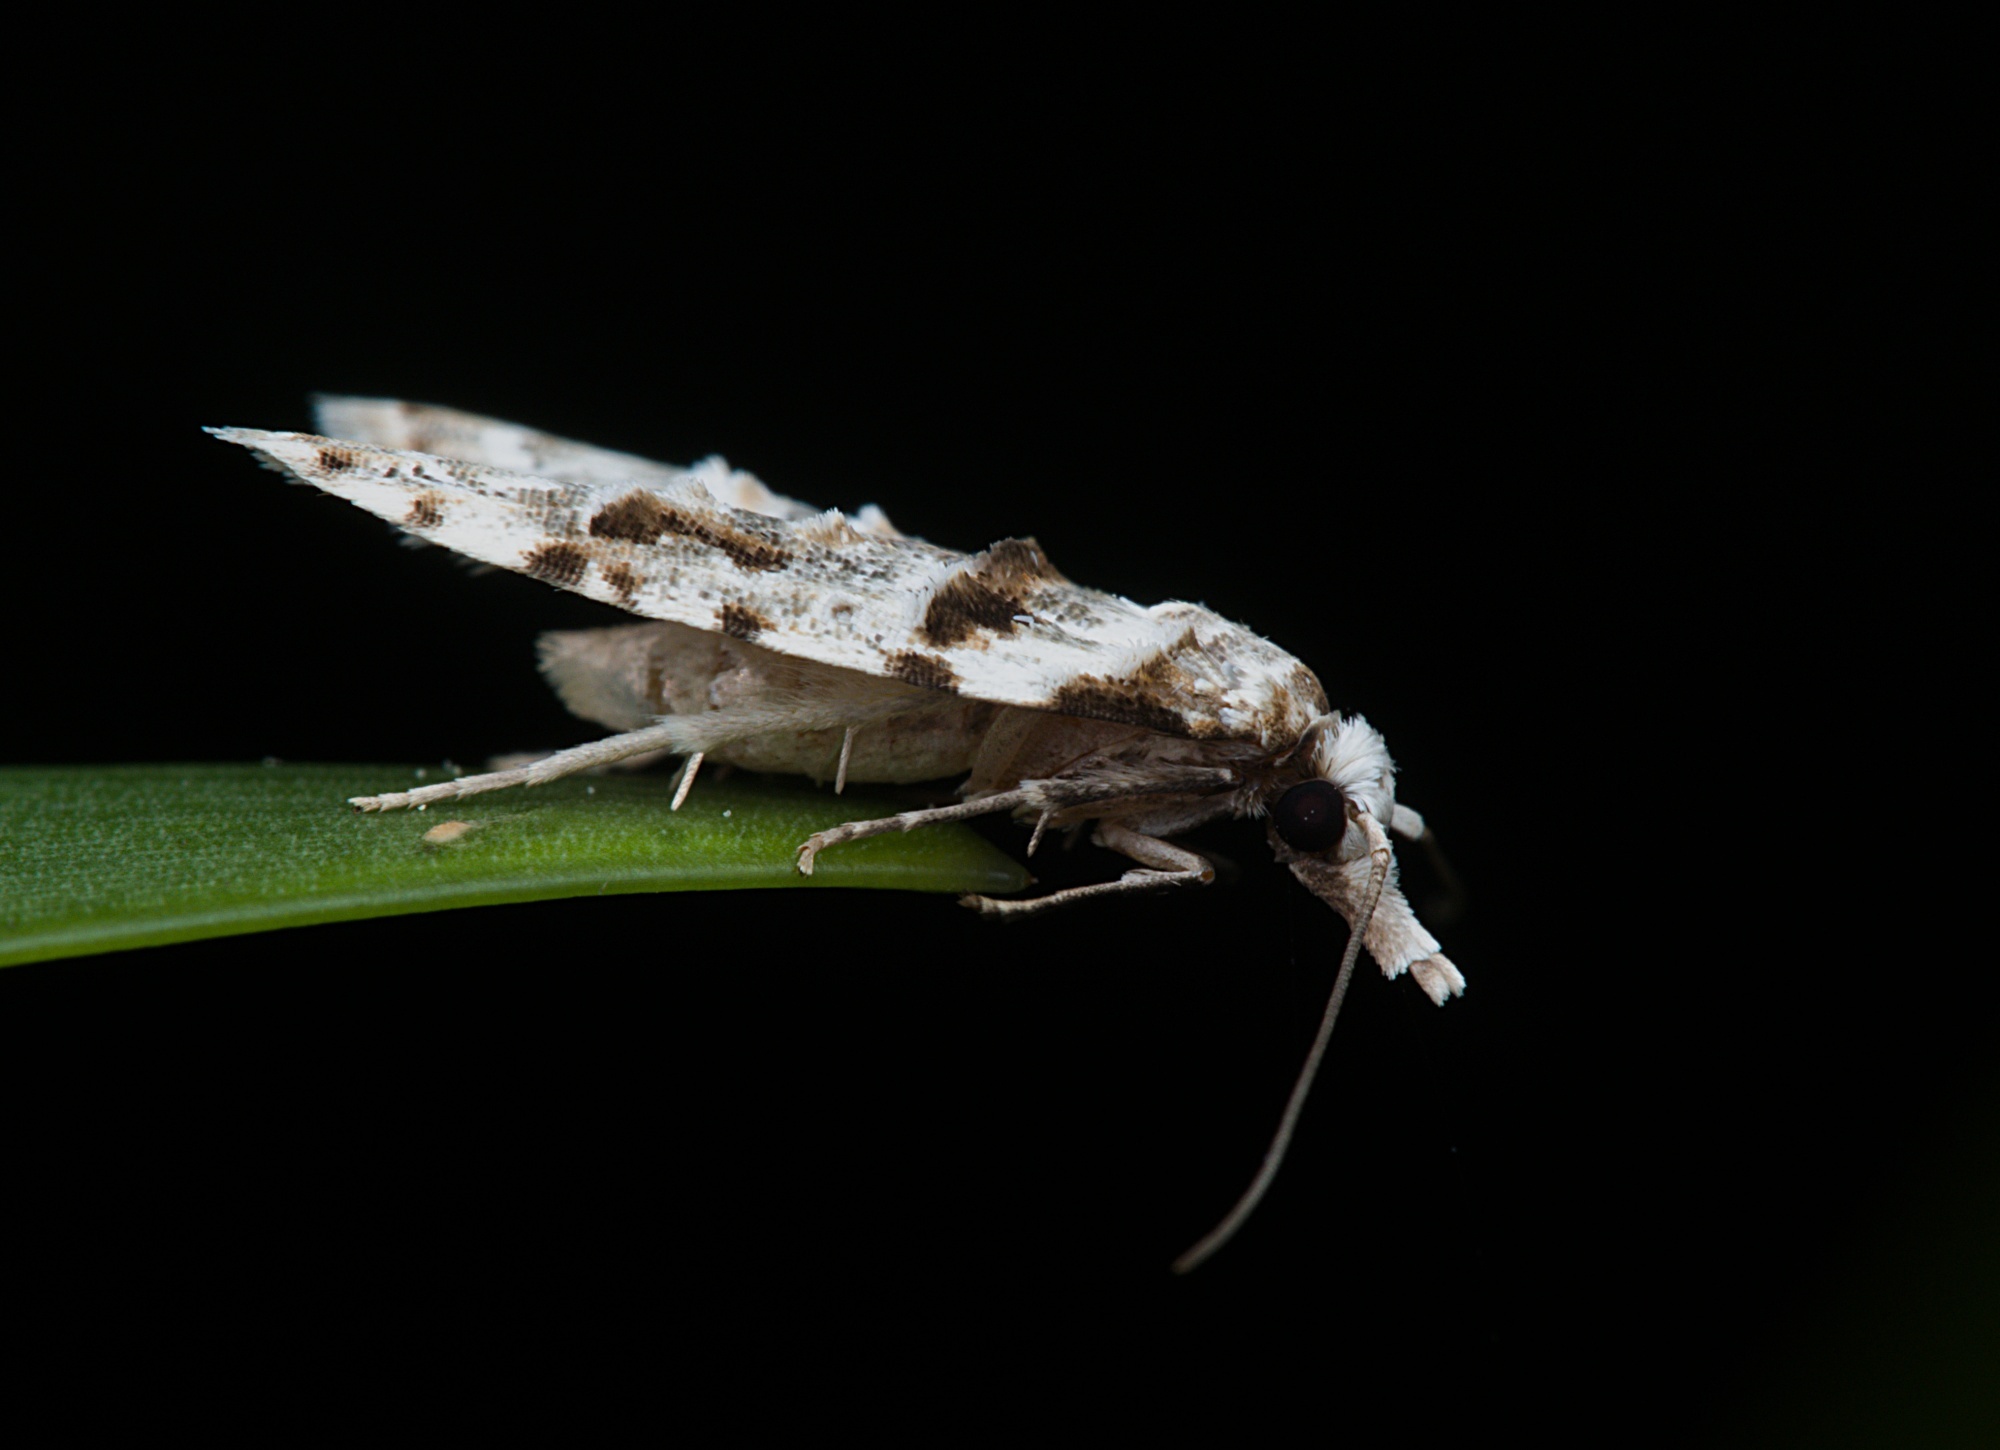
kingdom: Animalia
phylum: Arthropoda
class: Insecta
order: Lepidoptera
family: Carposinidae
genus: Coscinoptycha
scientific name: Coscinoptycha improbana
